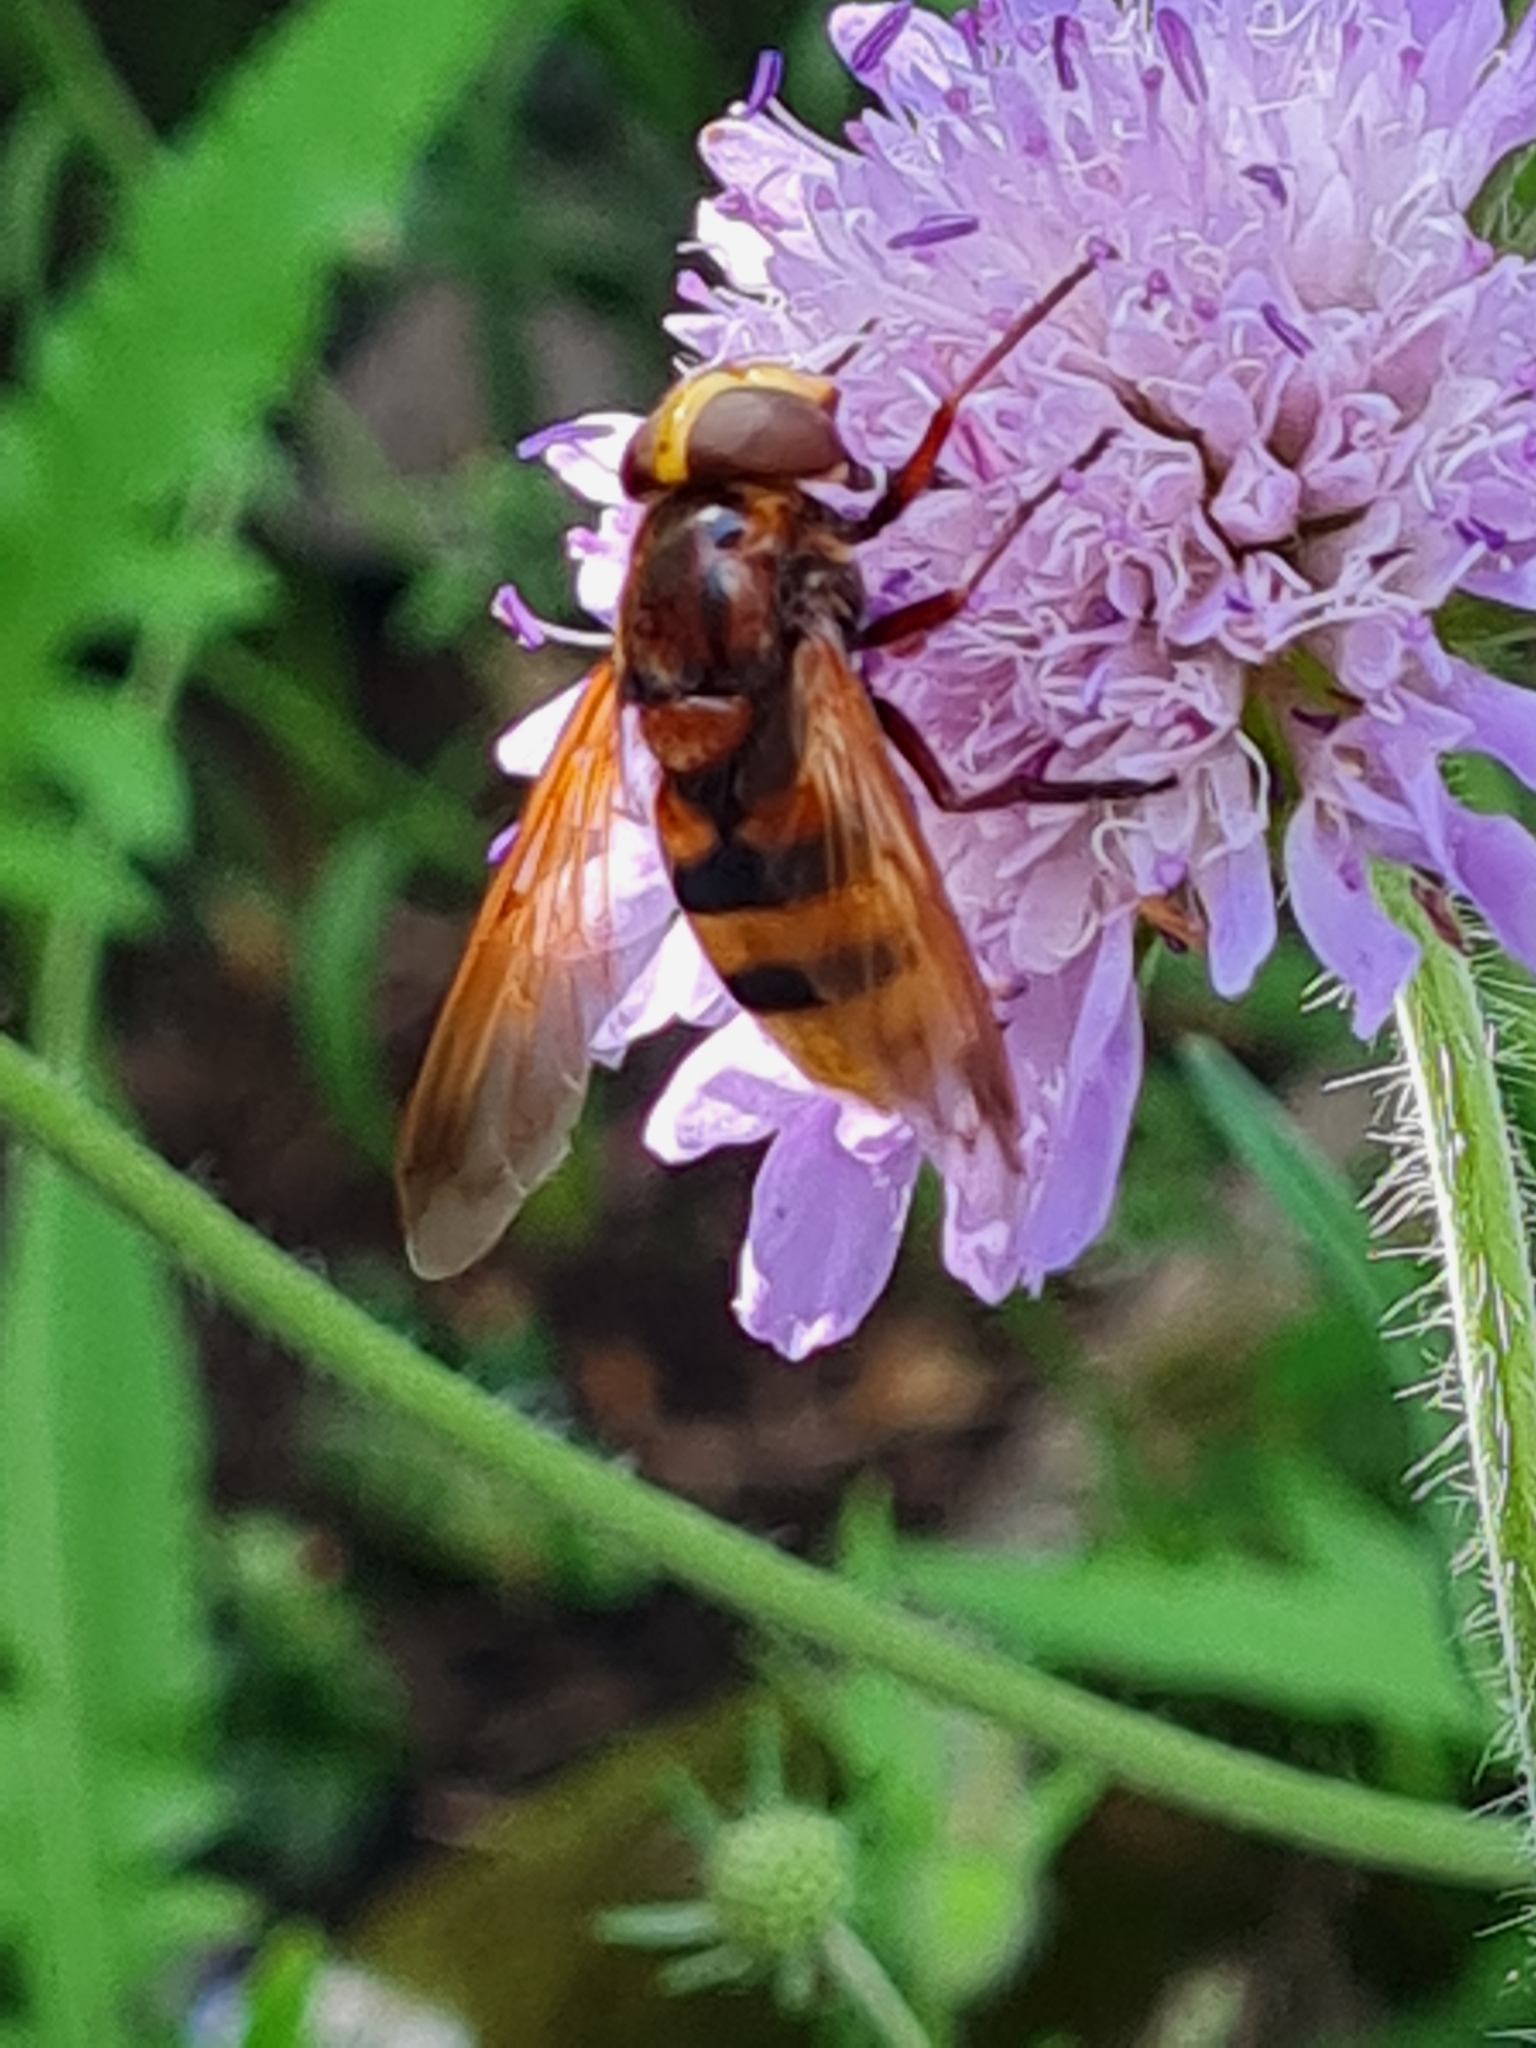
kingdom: Animalia
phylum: Arthropoda
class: Insecta
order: Diptera
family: Syrphidae
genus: Volucella
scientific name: Volucella zonaria
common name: Hornet hoverfly
